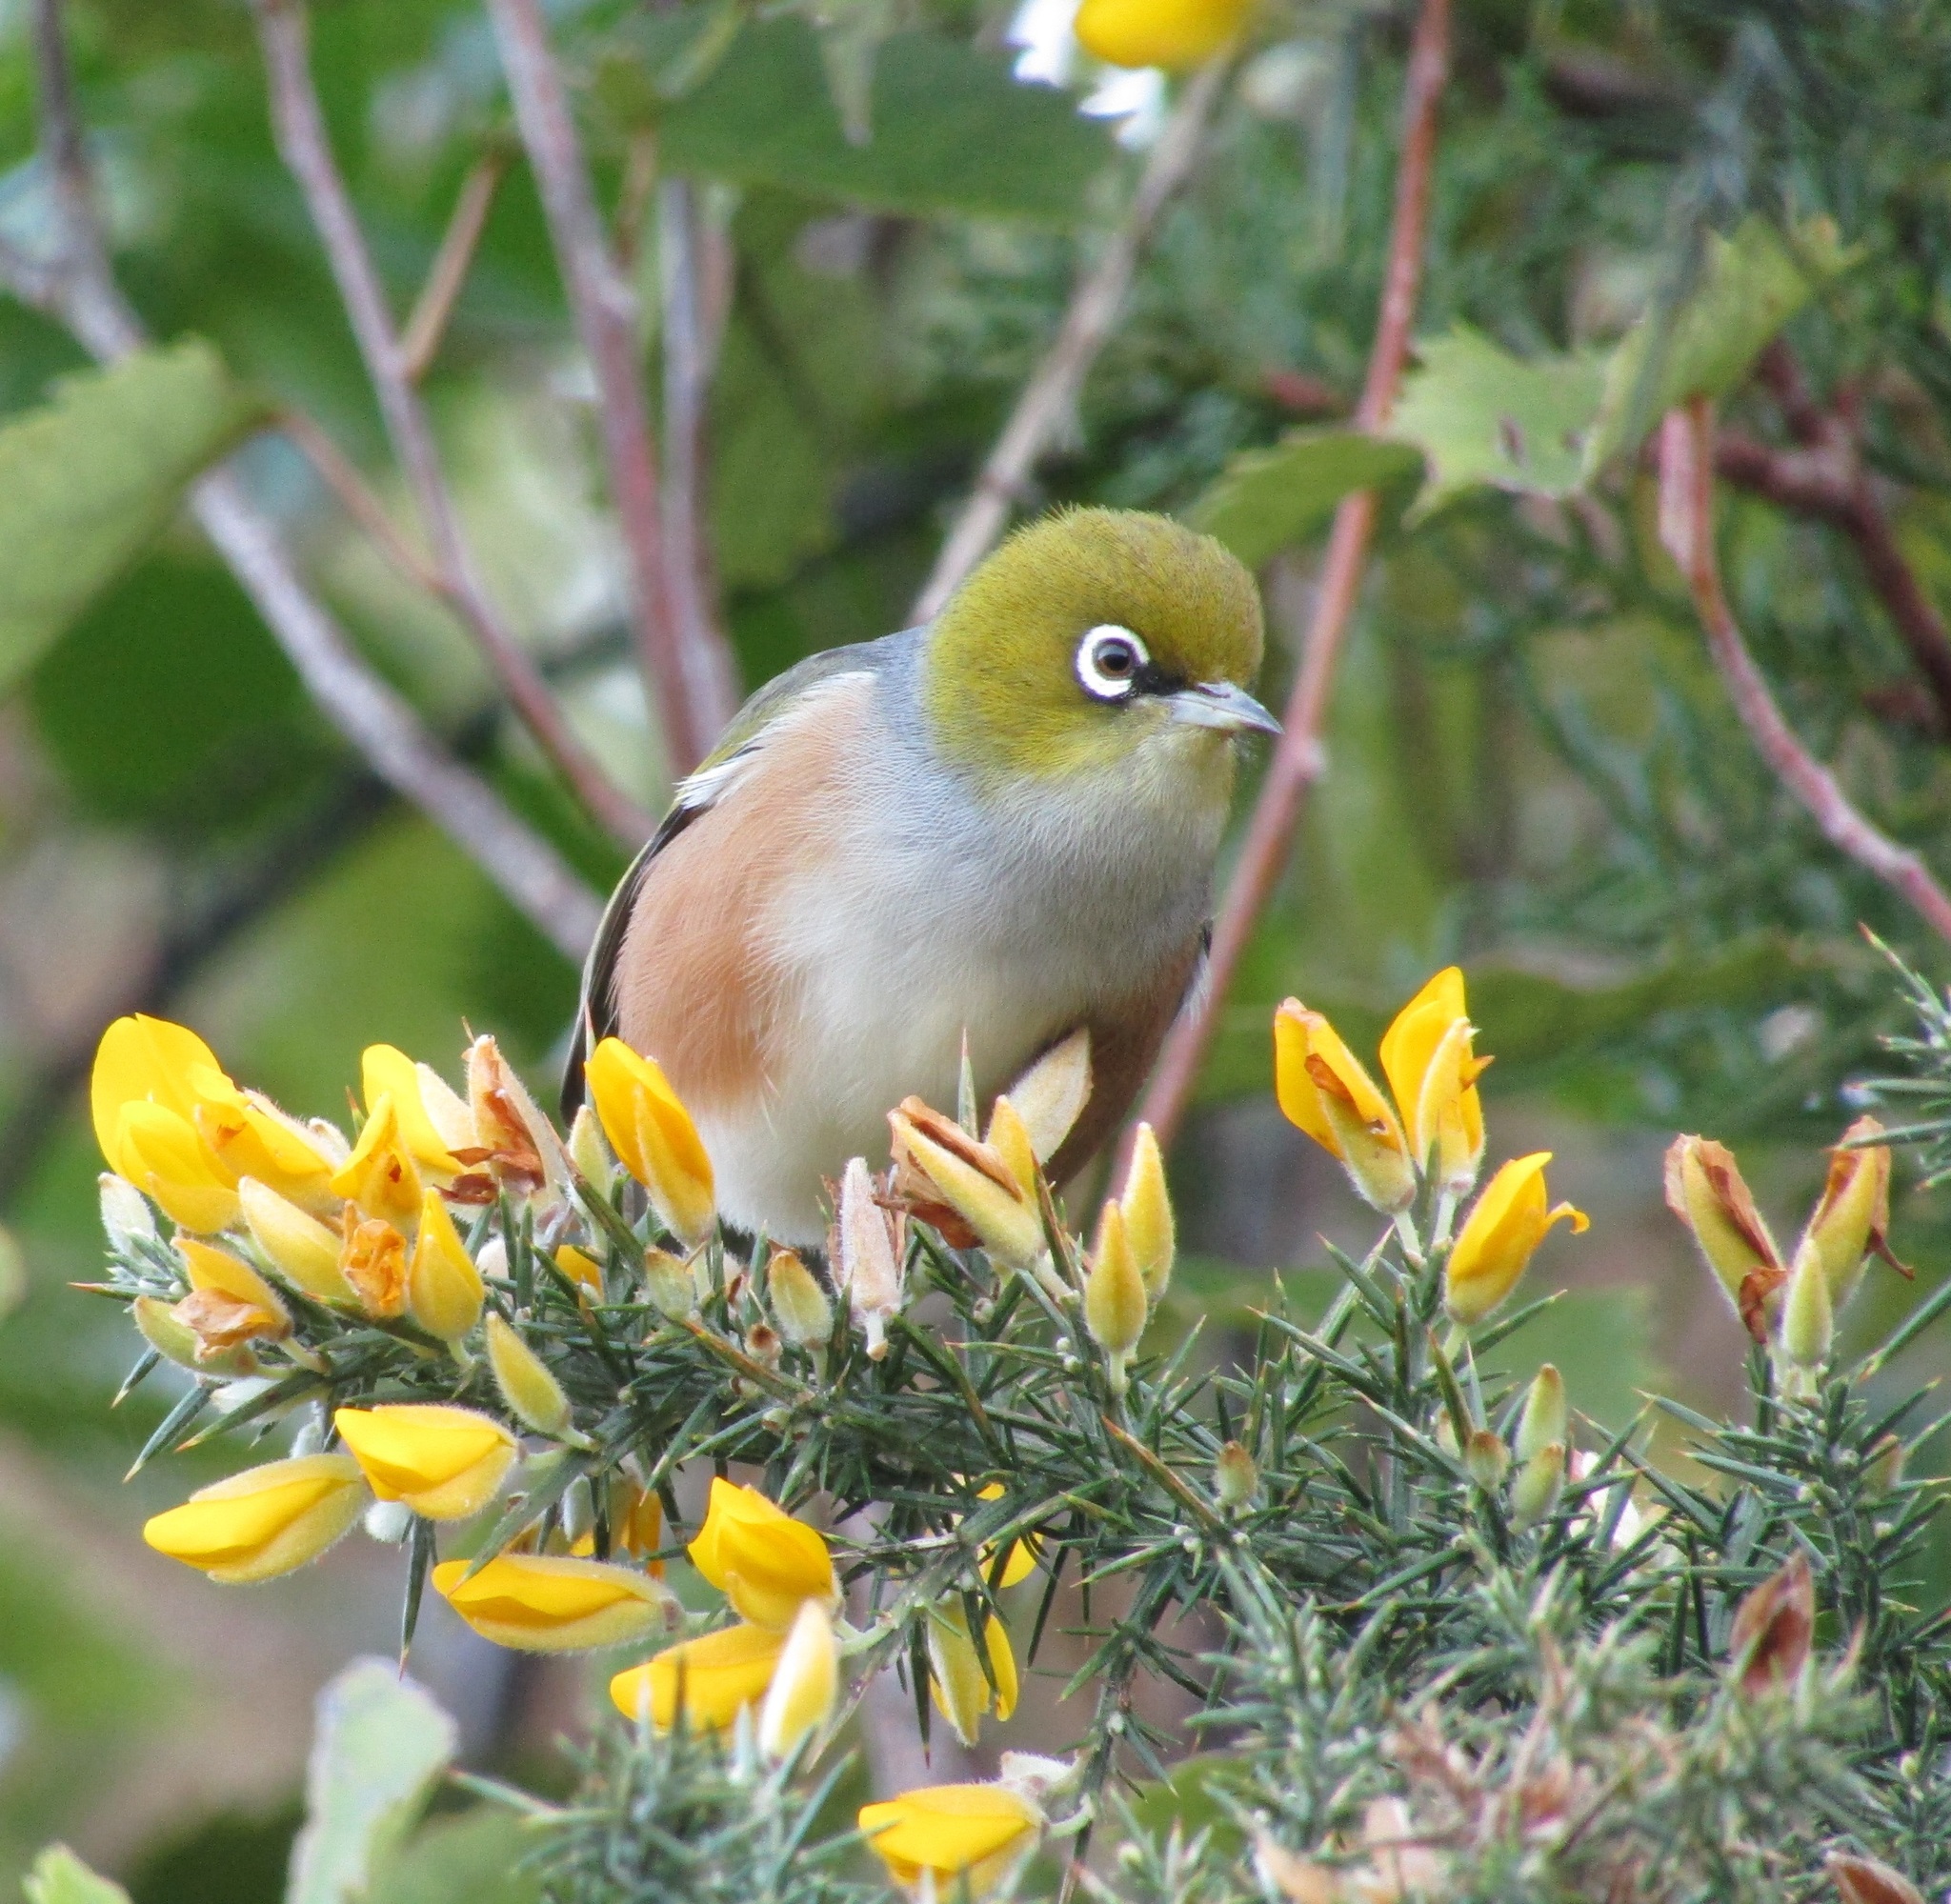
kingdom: Animalia
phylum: Chordata
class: Aves
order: Passeriformes
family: Zosteropidae
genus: Zosterops
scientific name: Zosterops lateralis
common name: Silvereye
